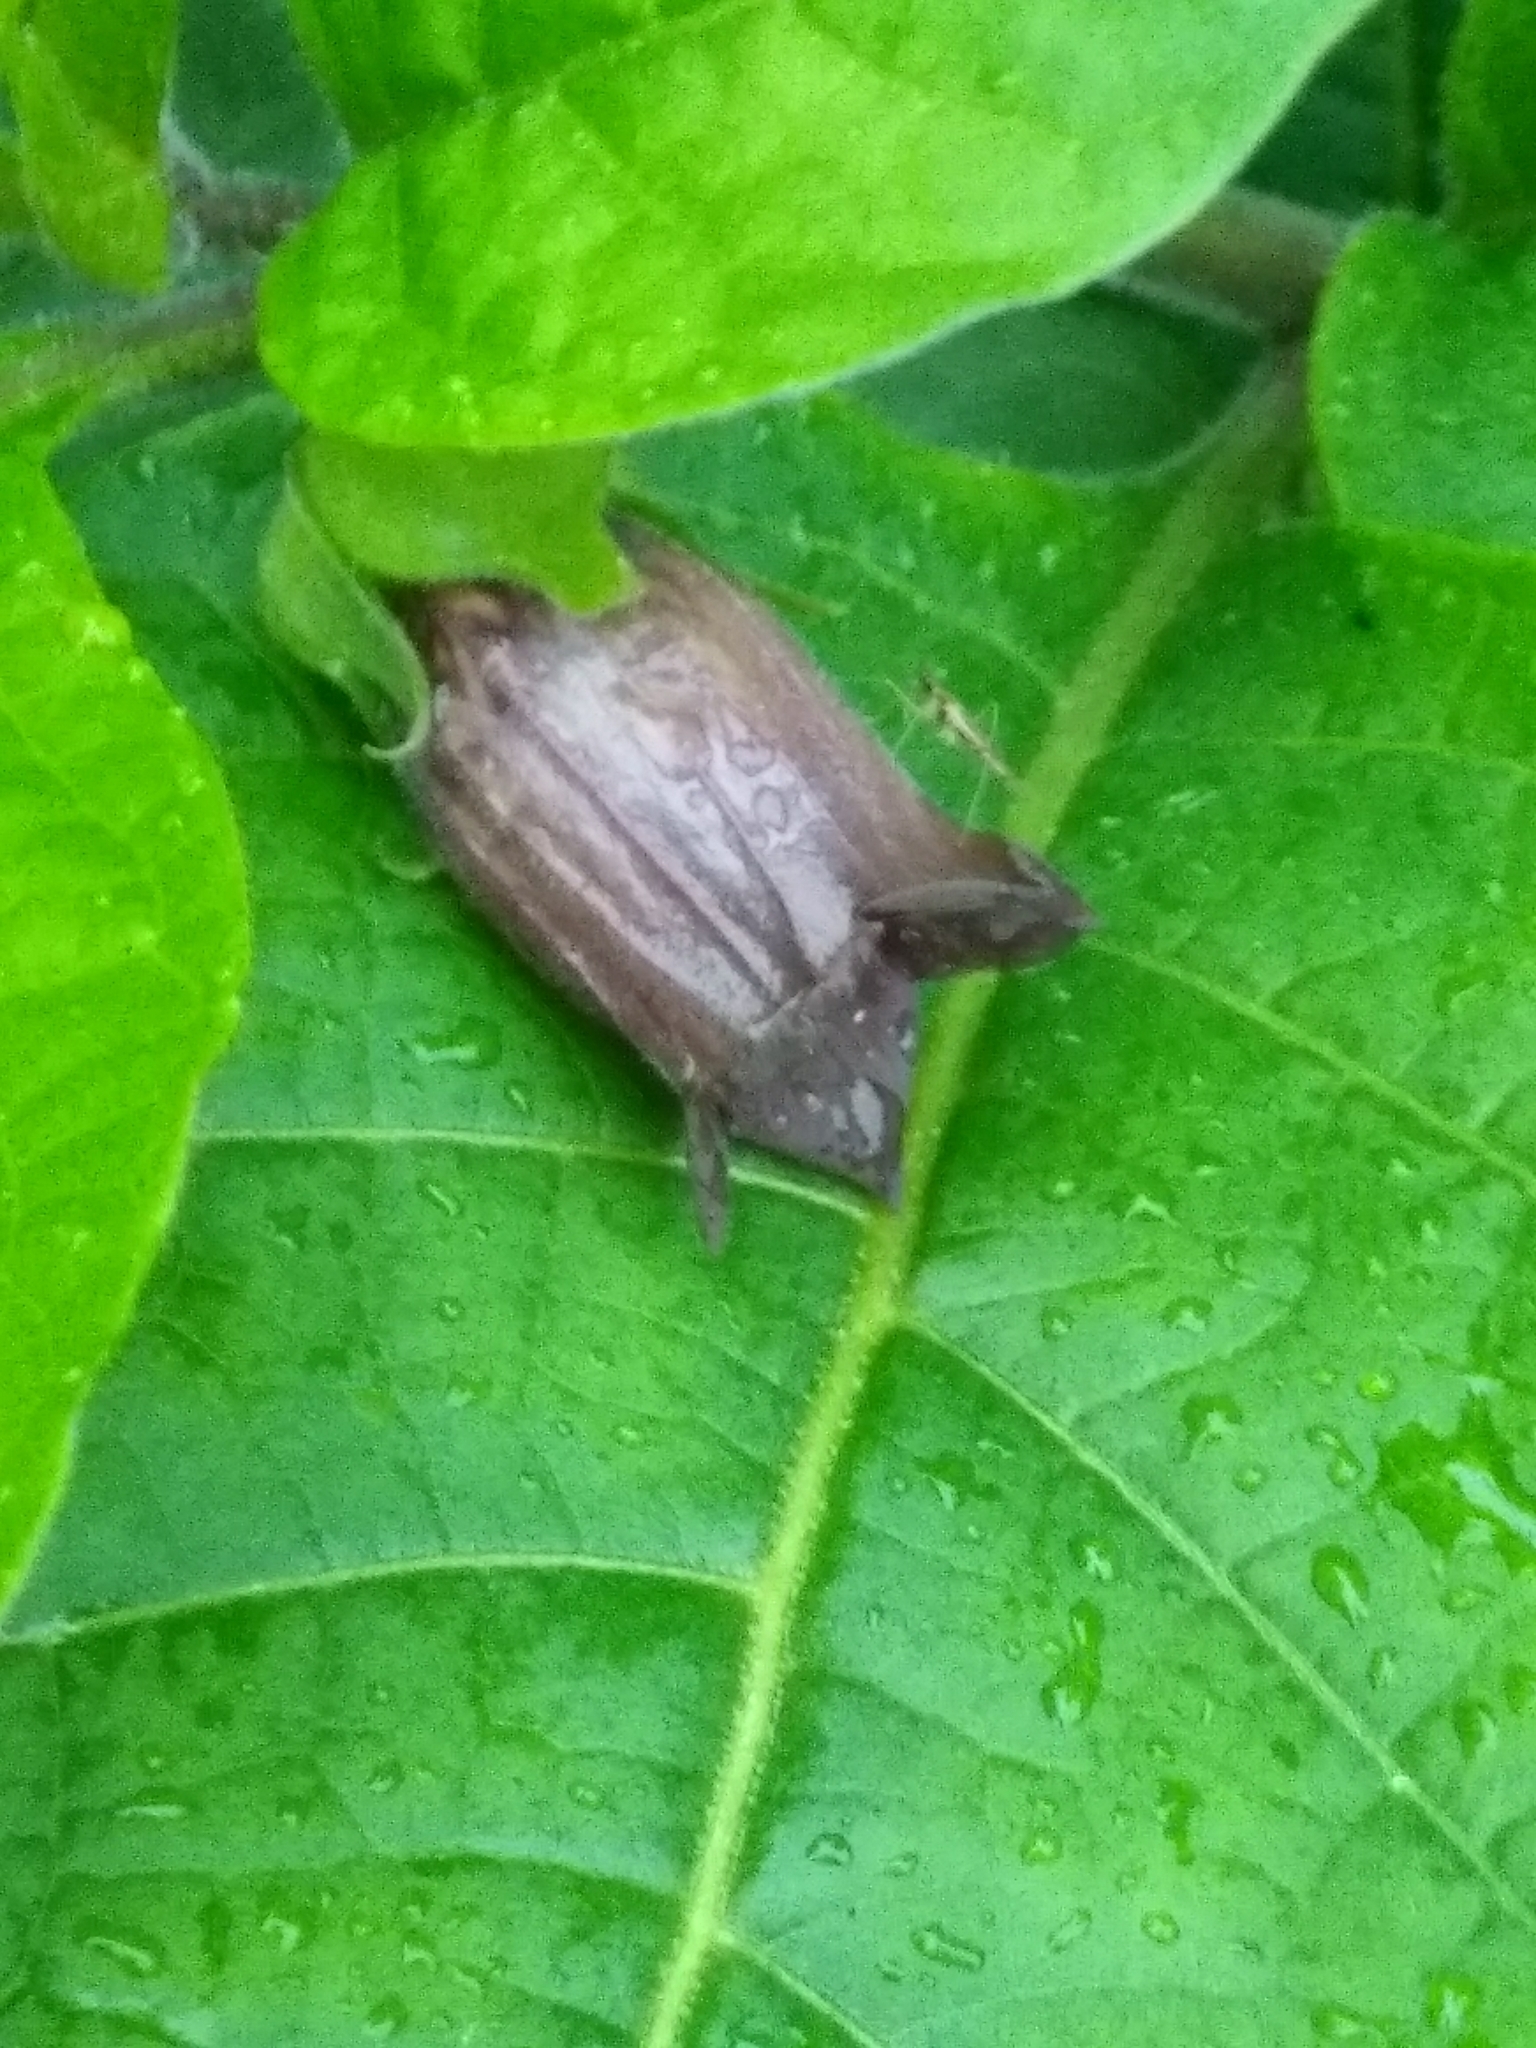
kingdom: Plantae
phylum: Tracheophyta
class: Magnoliopsida
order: Solanales
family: Solanaceae
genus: Atropa
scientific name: Atropa belladonna
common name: Deadly nightshade
